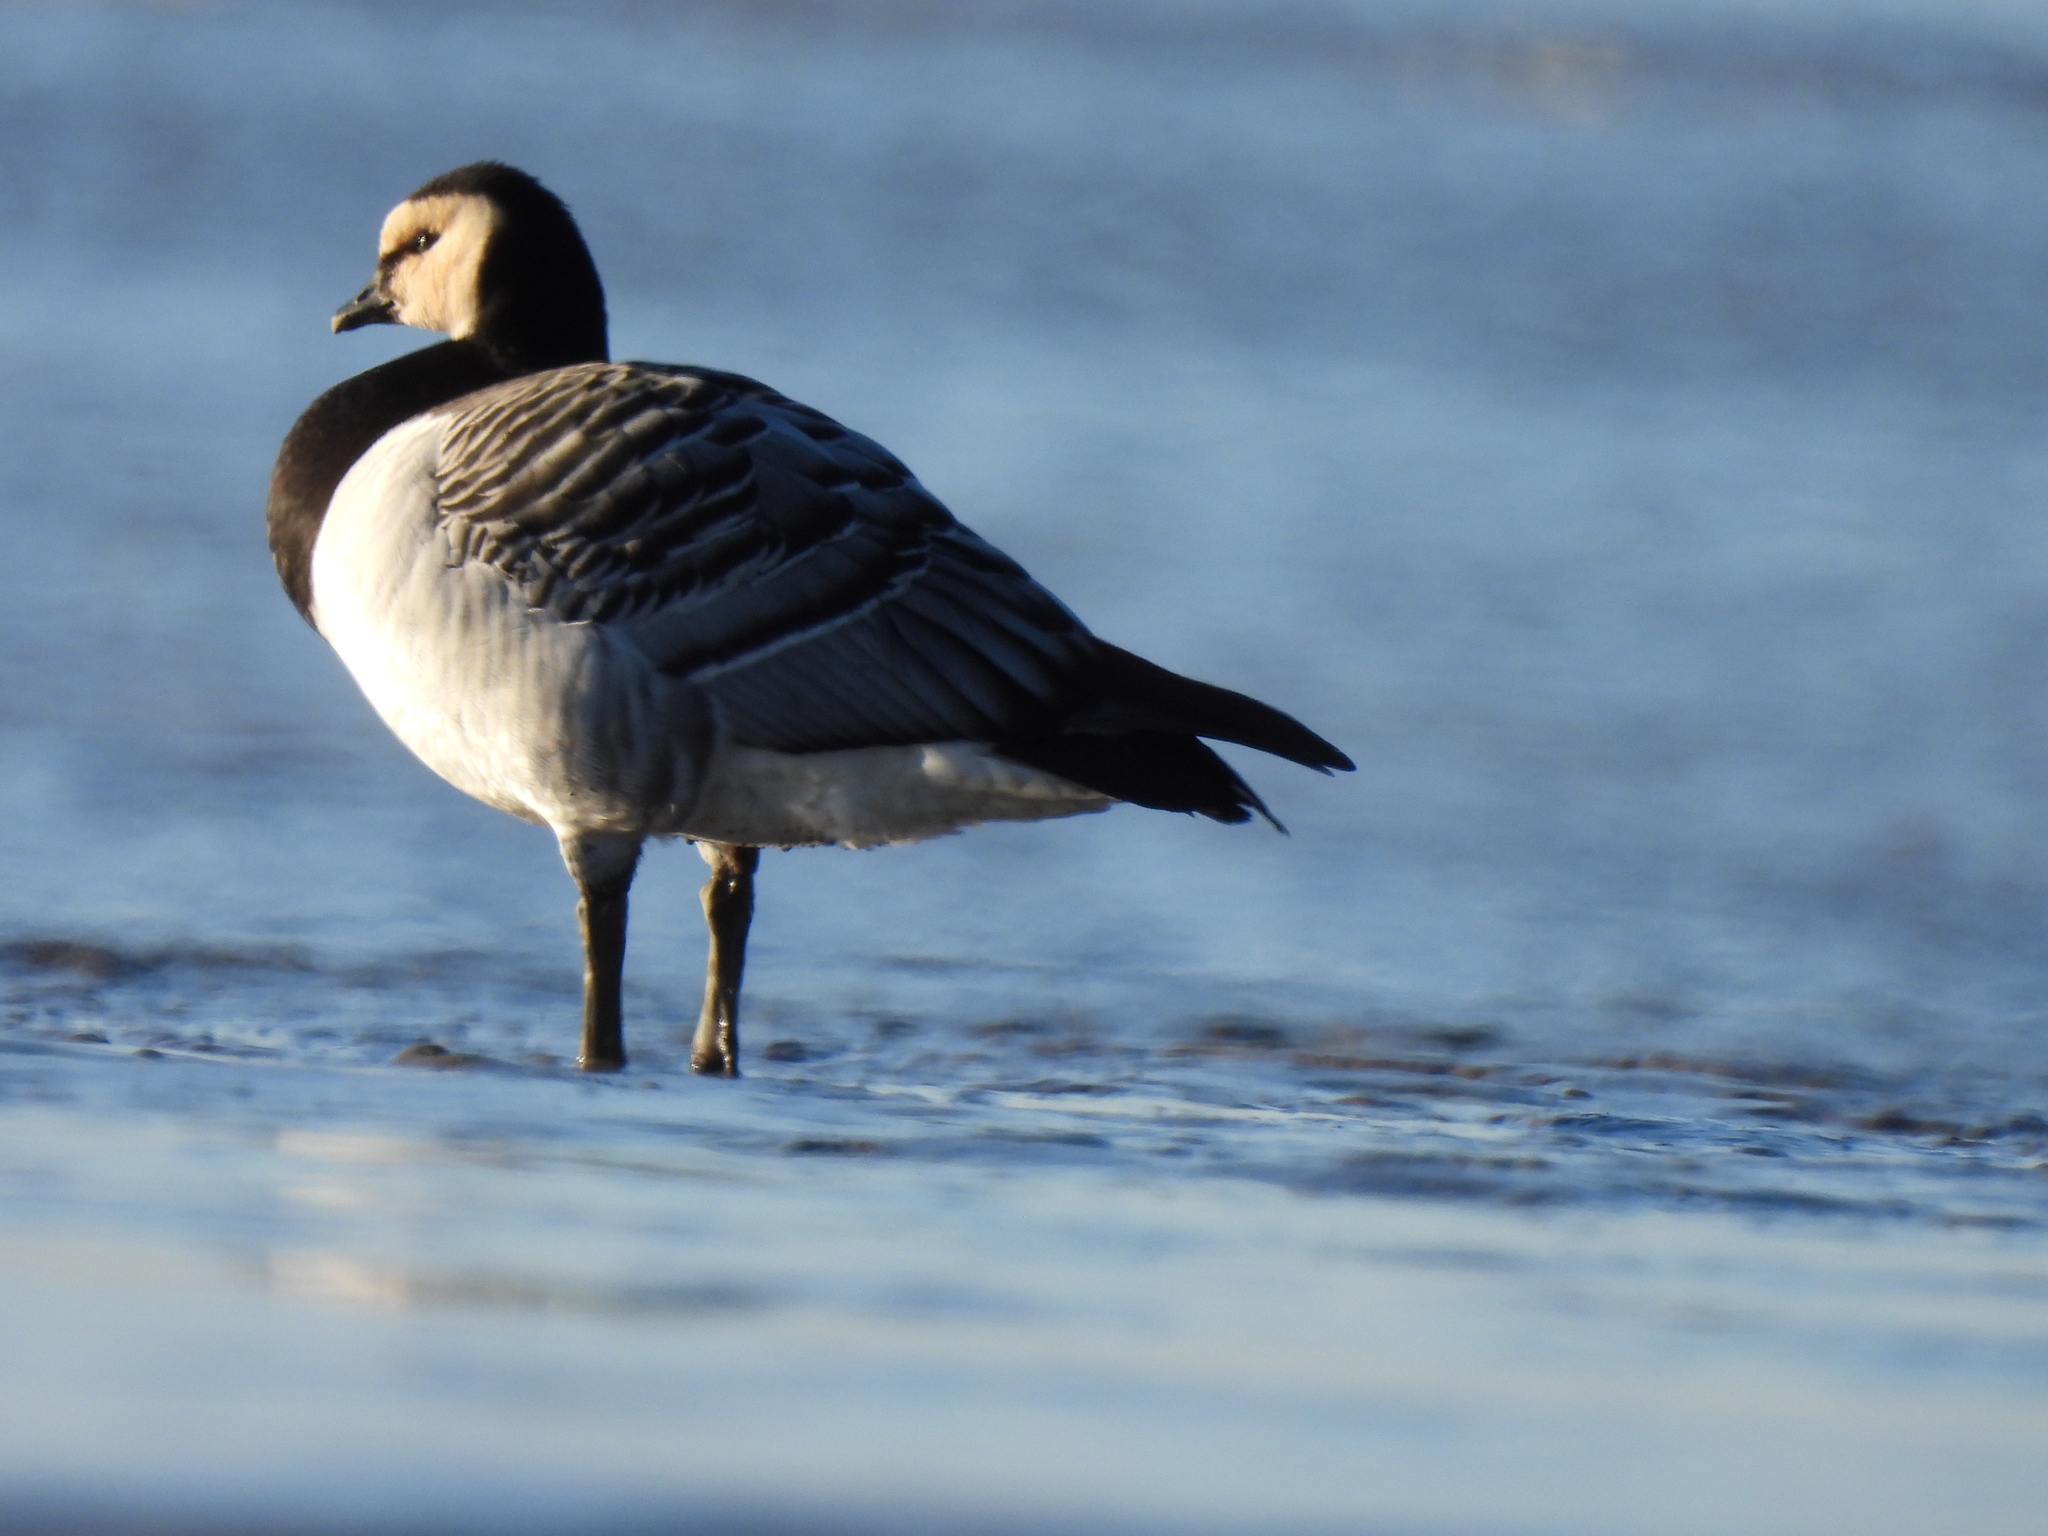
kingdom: Animalia
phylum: Chordata
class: Aves
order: Anseriformes
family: Anatidae
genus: Branta
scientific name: Branta leucopsis
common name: Barnacle goose
